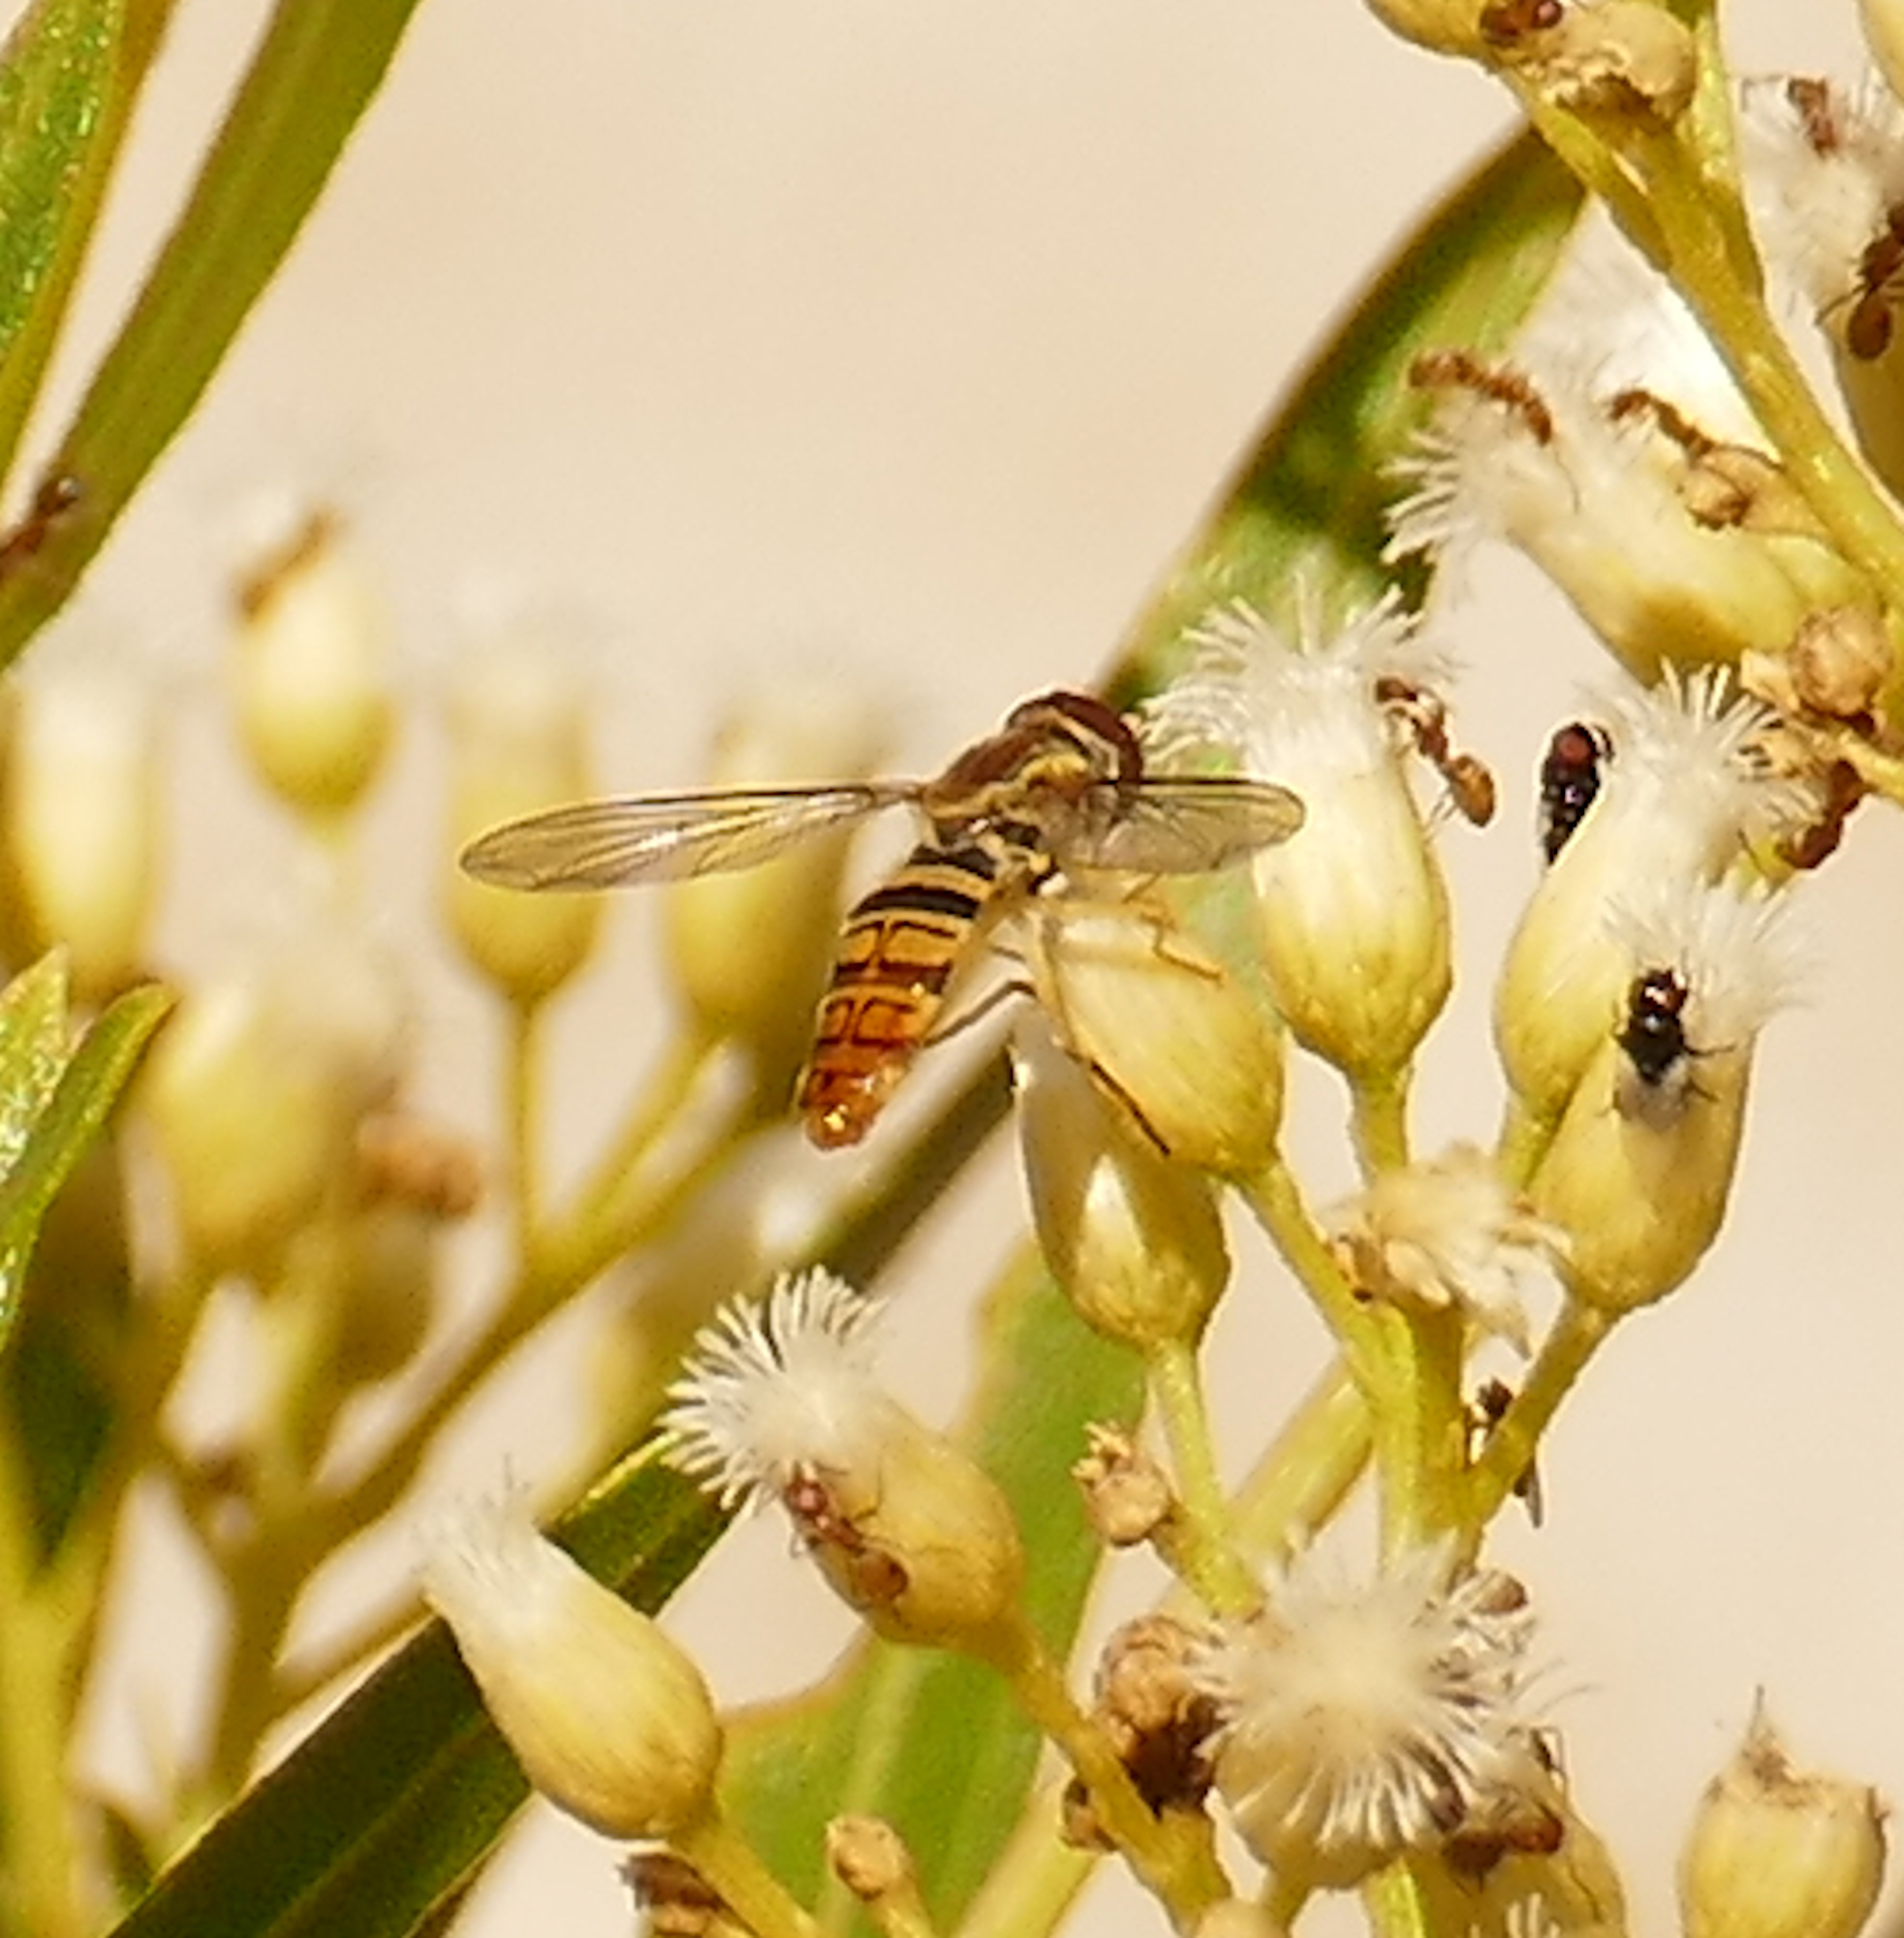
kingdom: Animalia
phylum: Arthropoda
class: Insecta
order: Diptera
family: Syrphidae
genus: Toxomerus
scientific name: Toxomerus politus
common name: Maize calligrapher
